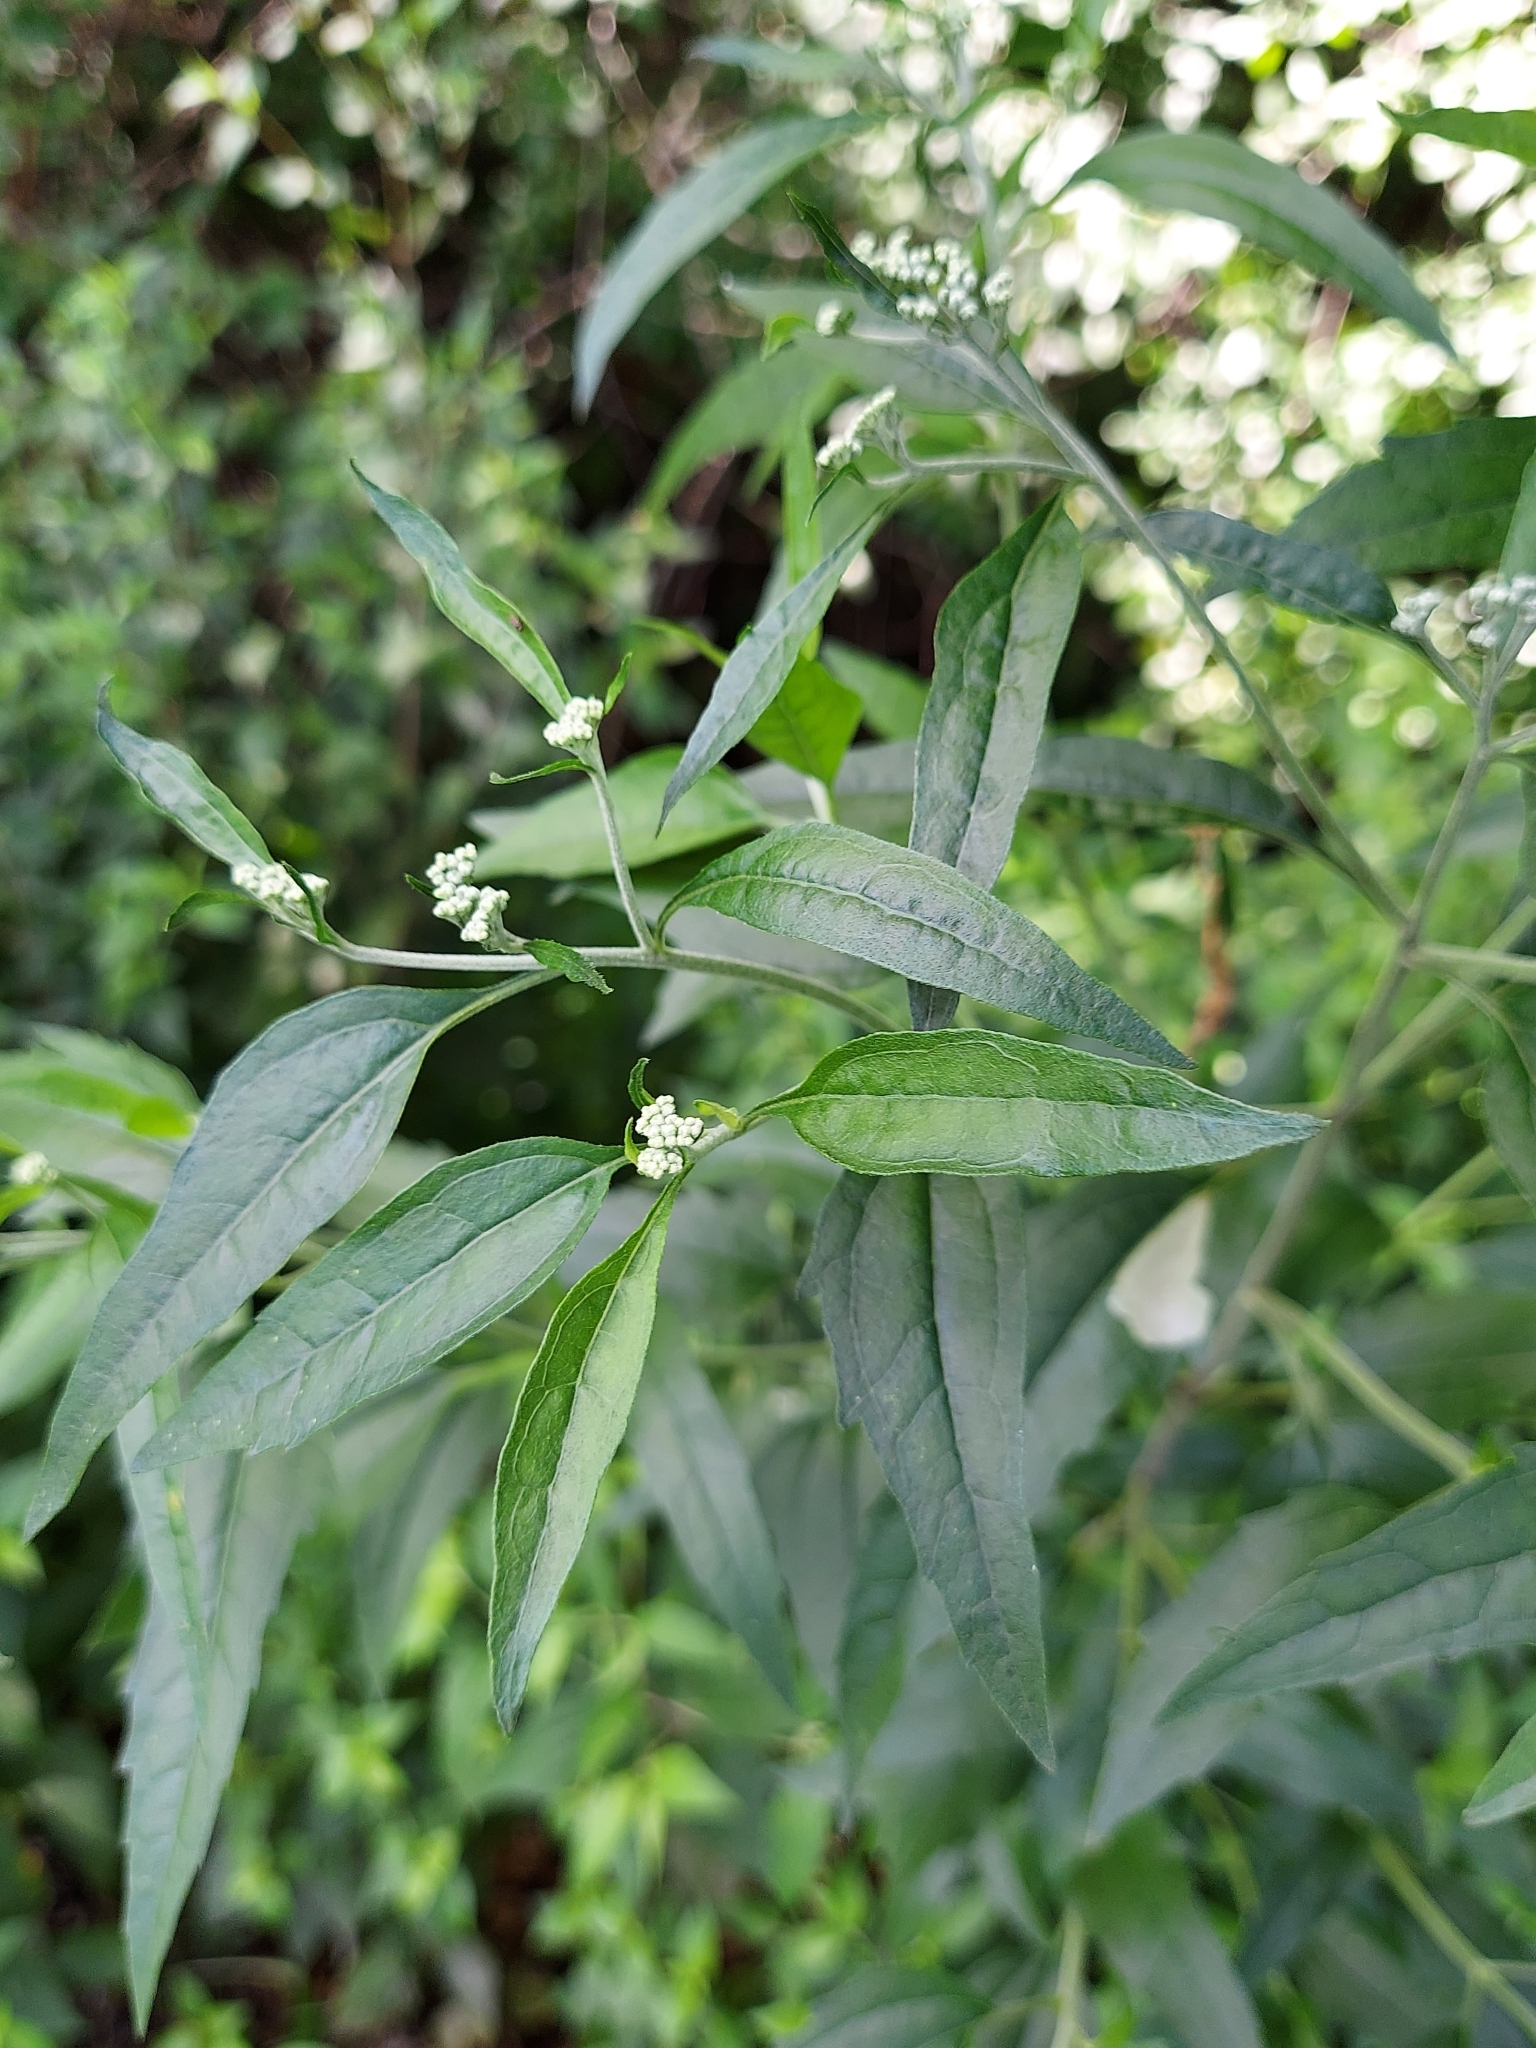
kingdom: Plantae
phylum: Tracheophyta
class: Magnoliopsida
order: Asterales
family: Asteraceae
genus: Eupatorium
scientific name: Eupatorium serotinum
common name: Late boneset
